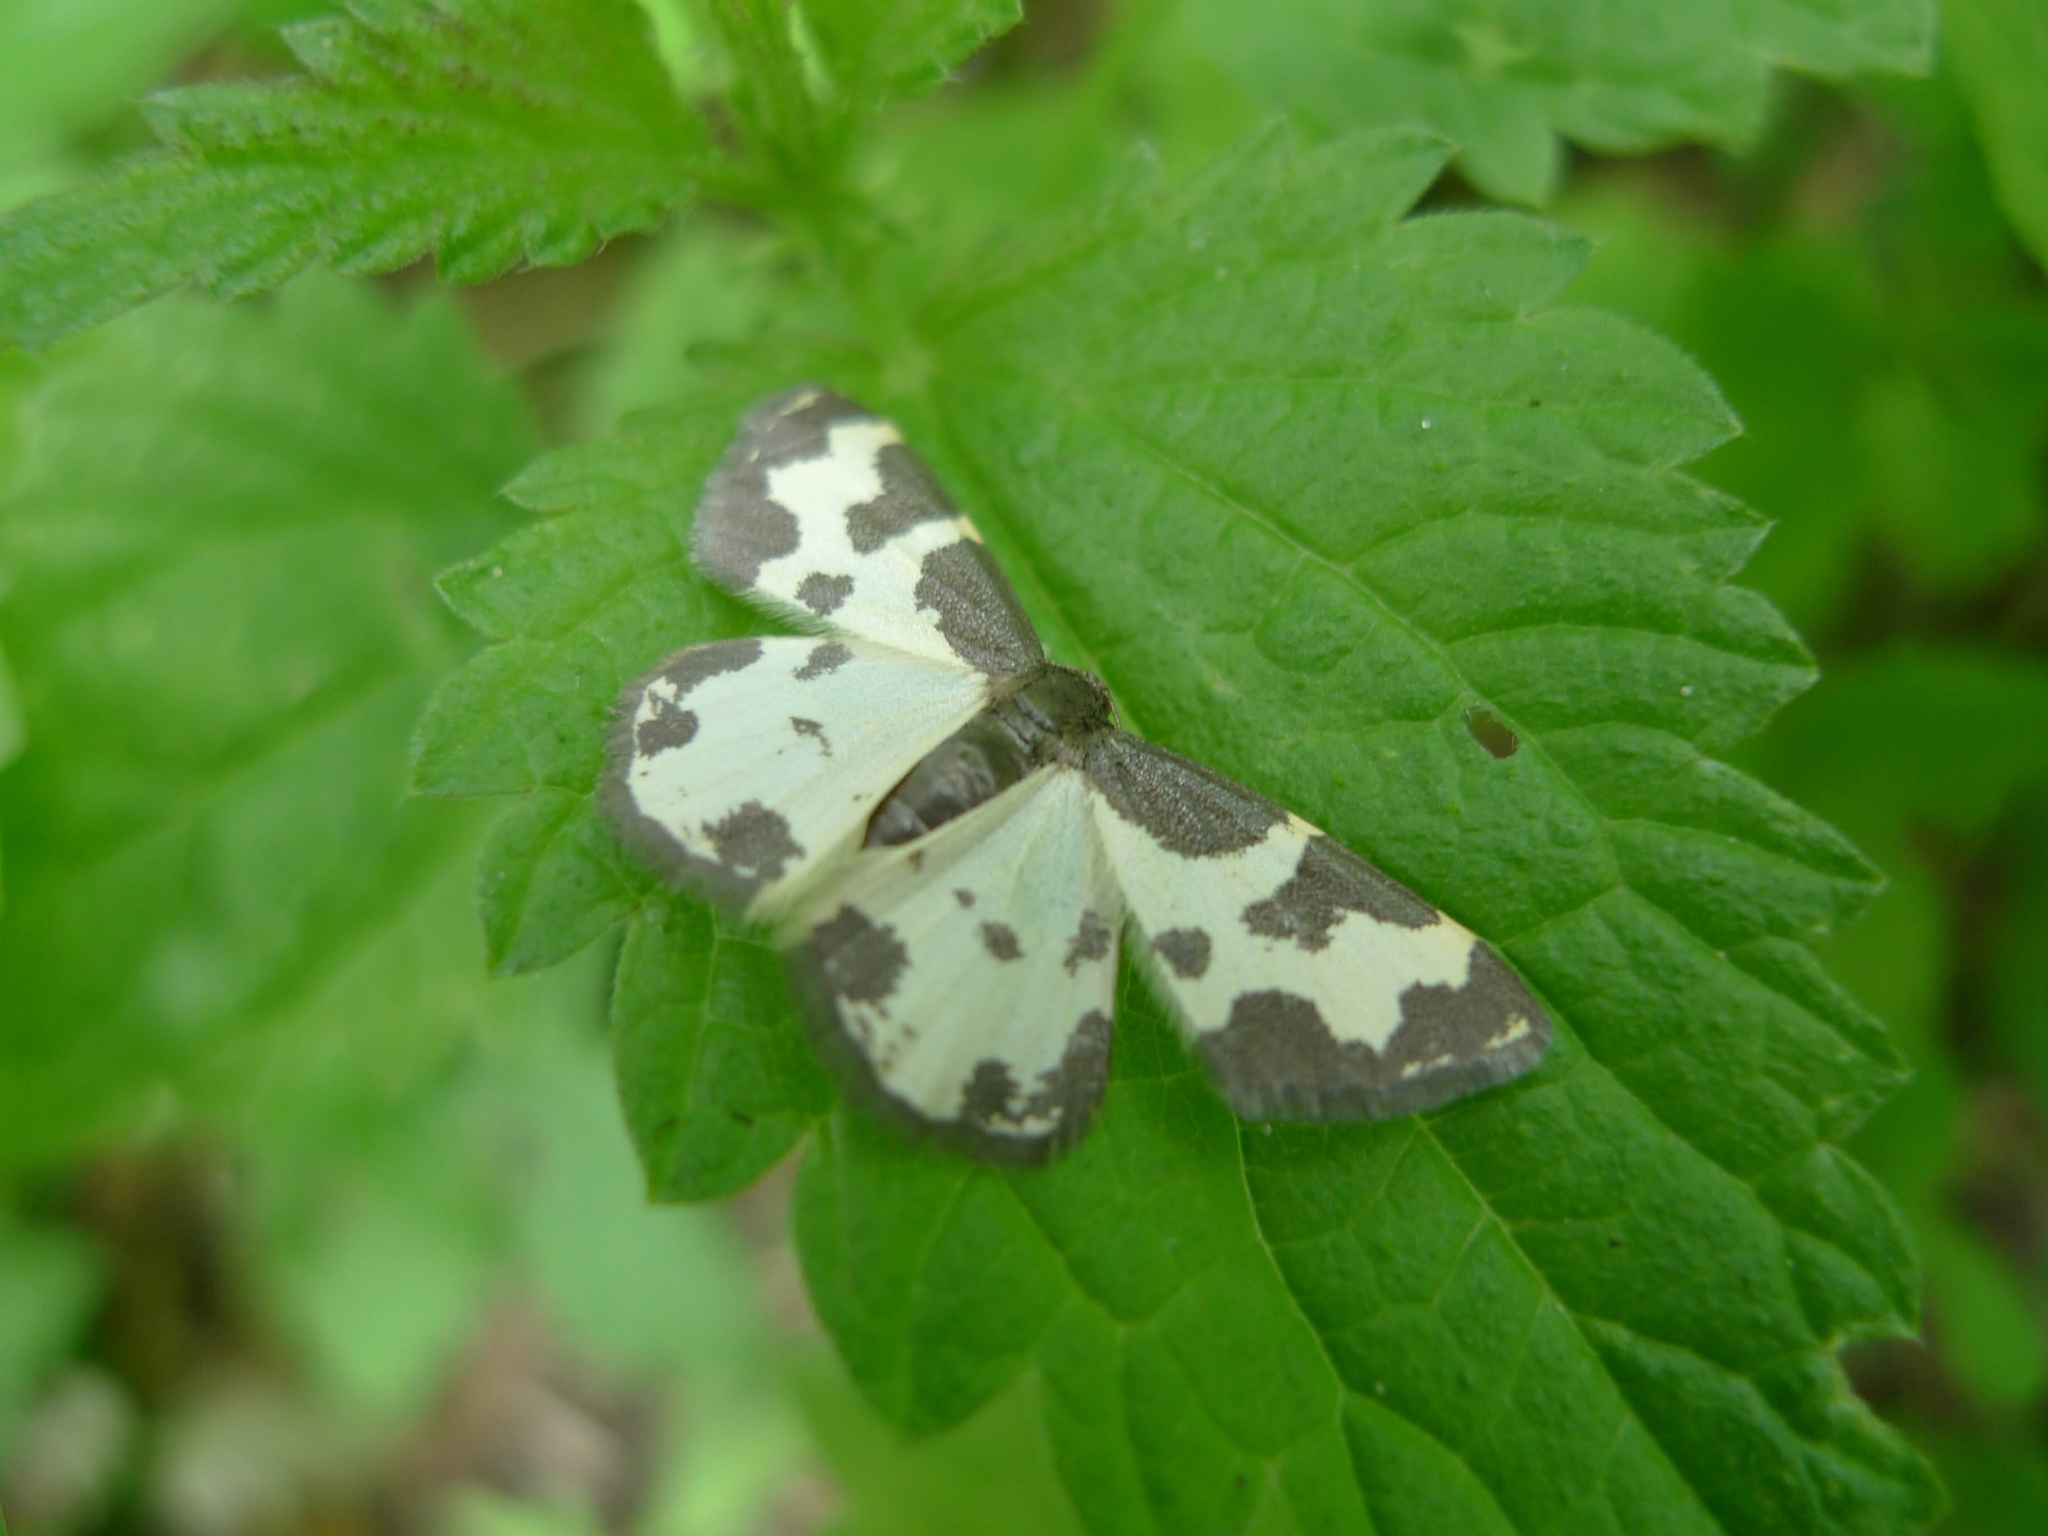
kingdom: Animalia
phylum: Arthropoda
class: Insecta
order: Lepidoptera
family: Geometridae
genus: Lomaspilis
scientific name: Lomaspilis marginata
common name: Clouded border
